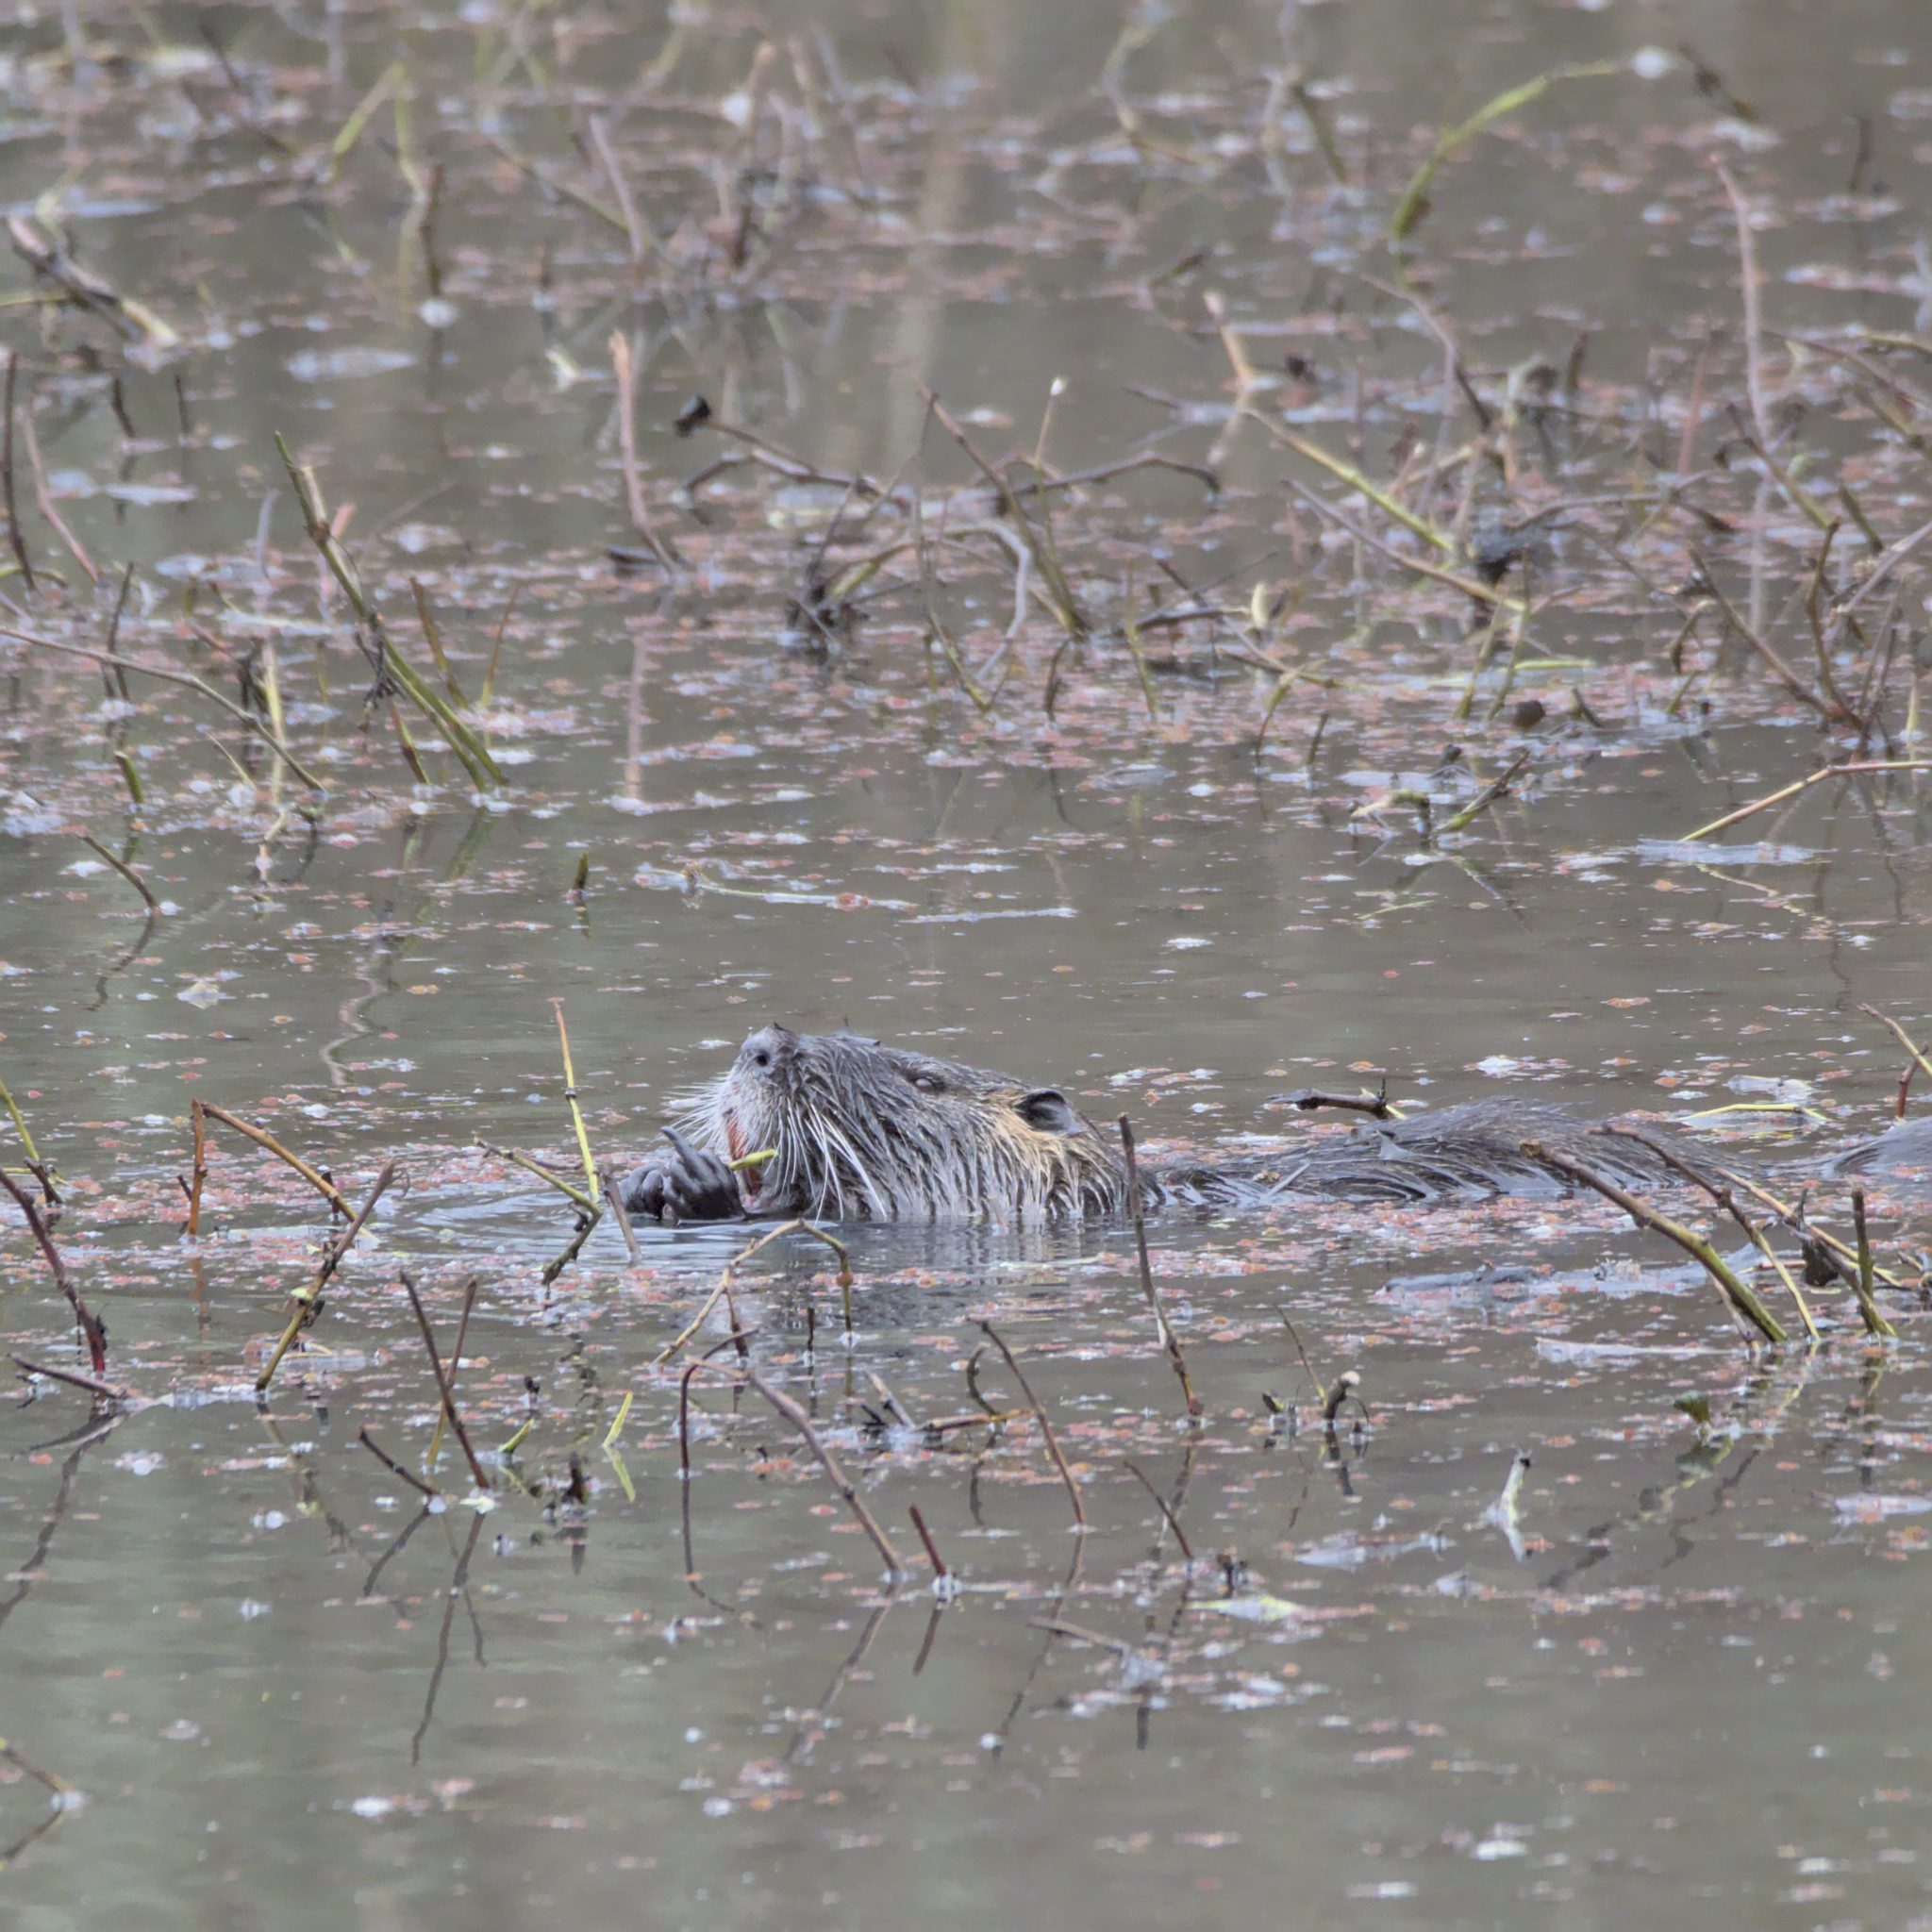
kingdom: Animalia
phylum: Chordata
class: Mammalia
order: Rodentia
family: Myocastoridae
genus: Myocastor
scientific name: Myocastor coypus
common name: Coypu
